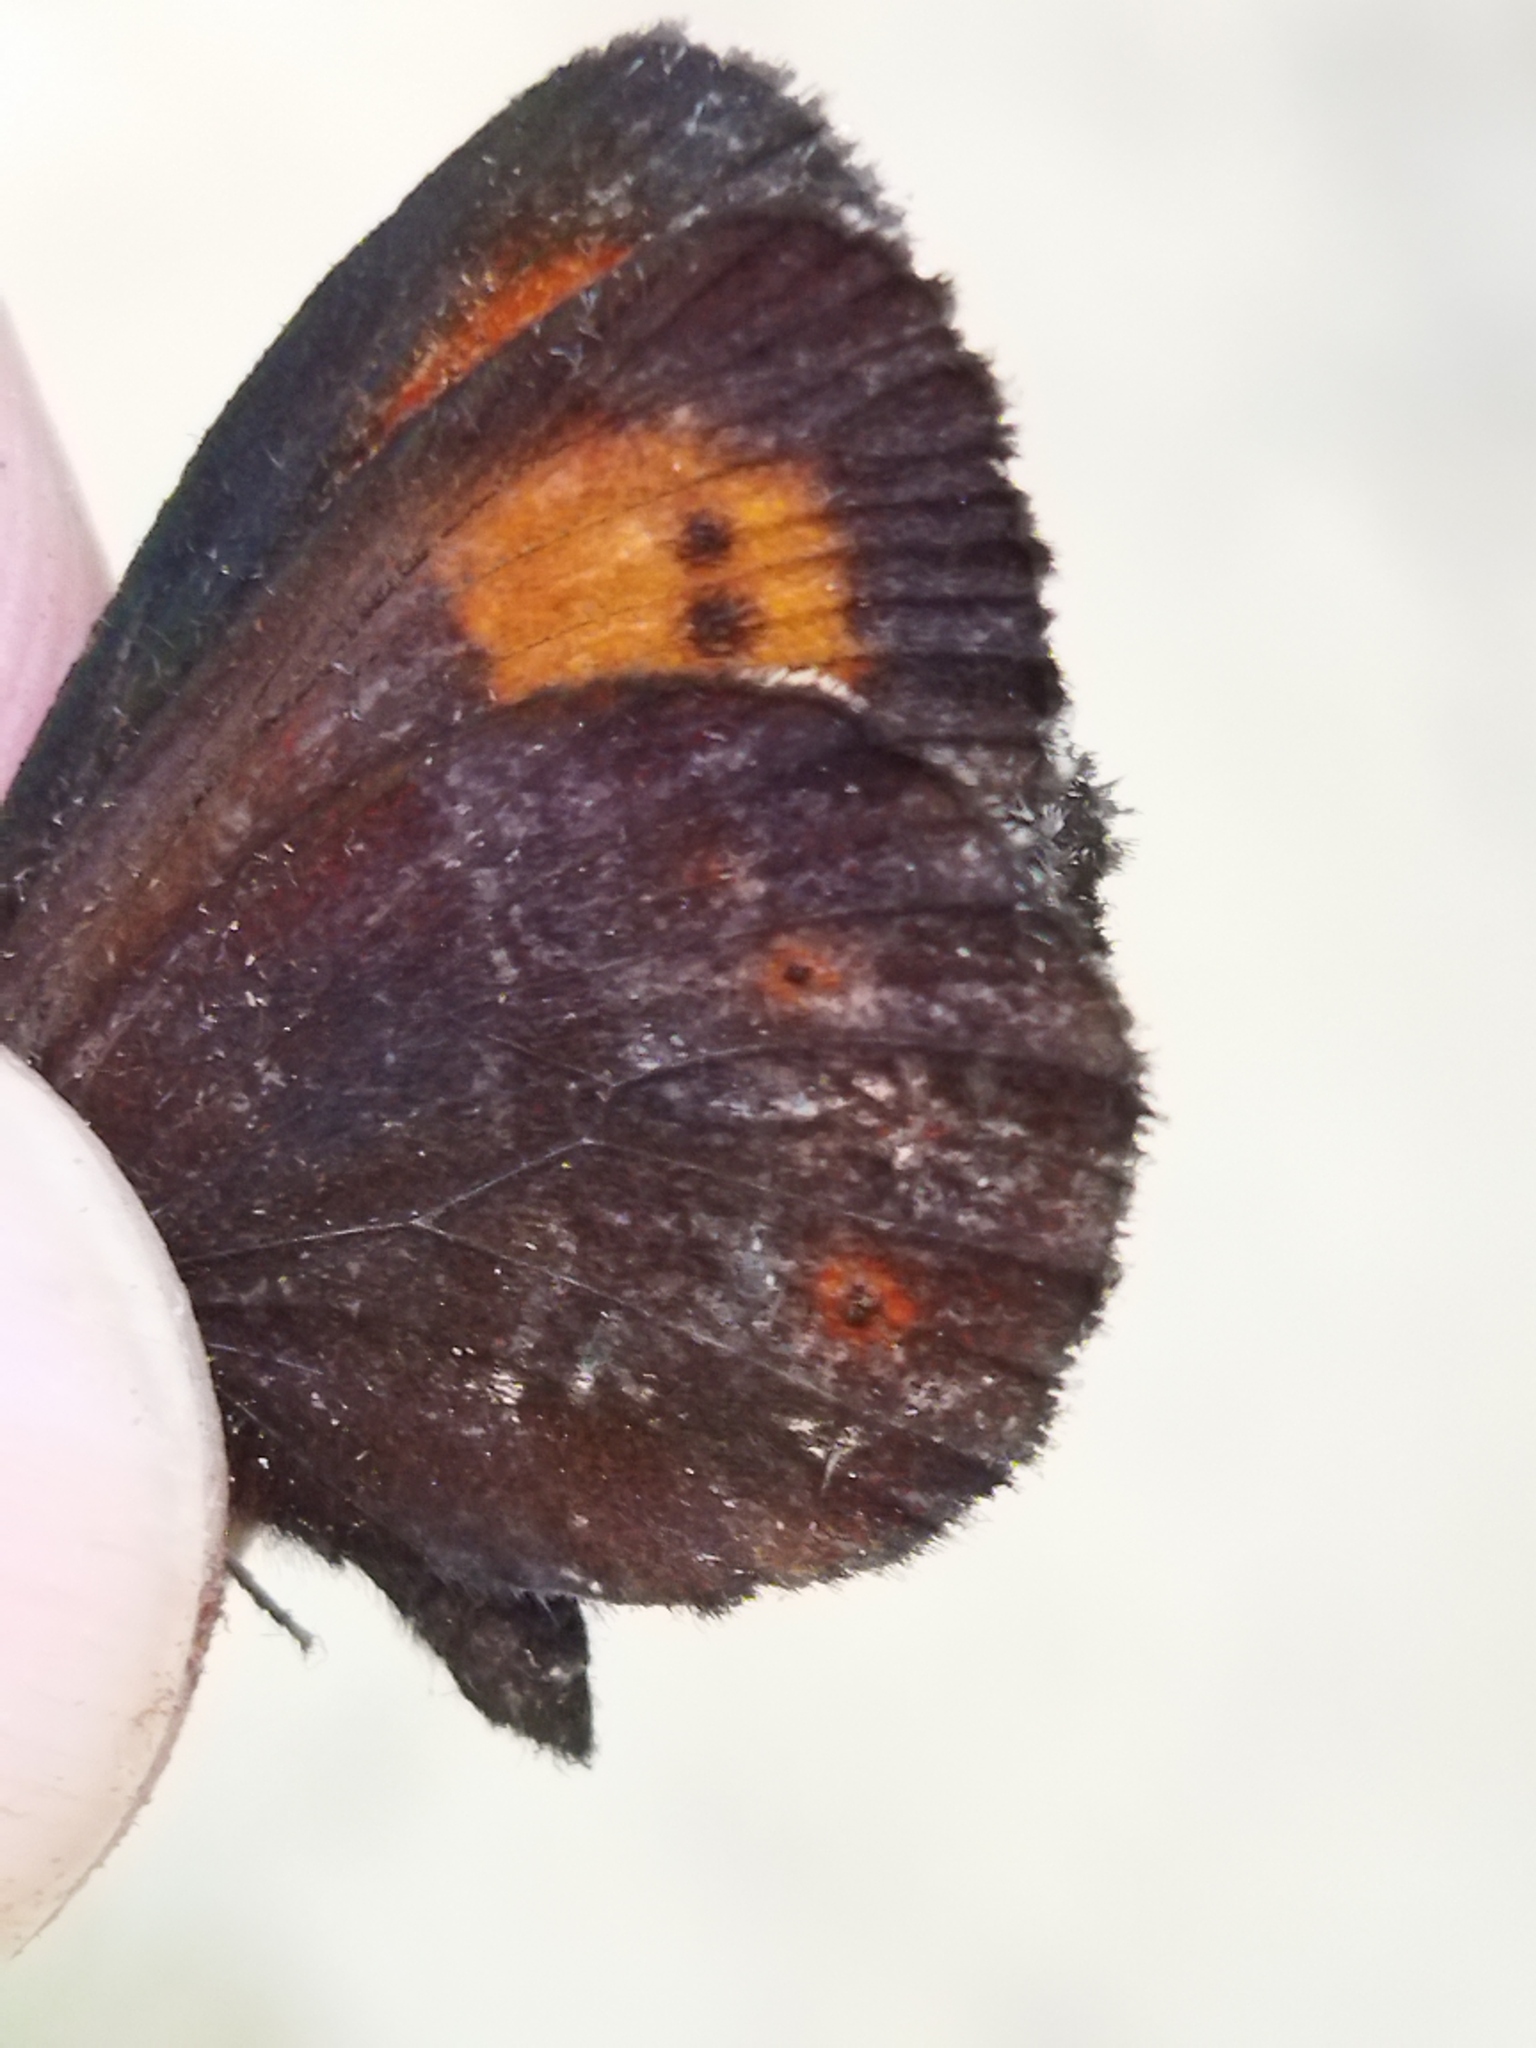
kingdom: Animalia
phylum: Arthropoda
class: Insecta
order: Lepidoptera
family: Nymphalidae
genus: Erebia
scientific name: Erebia euryale
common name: Large ringlet
